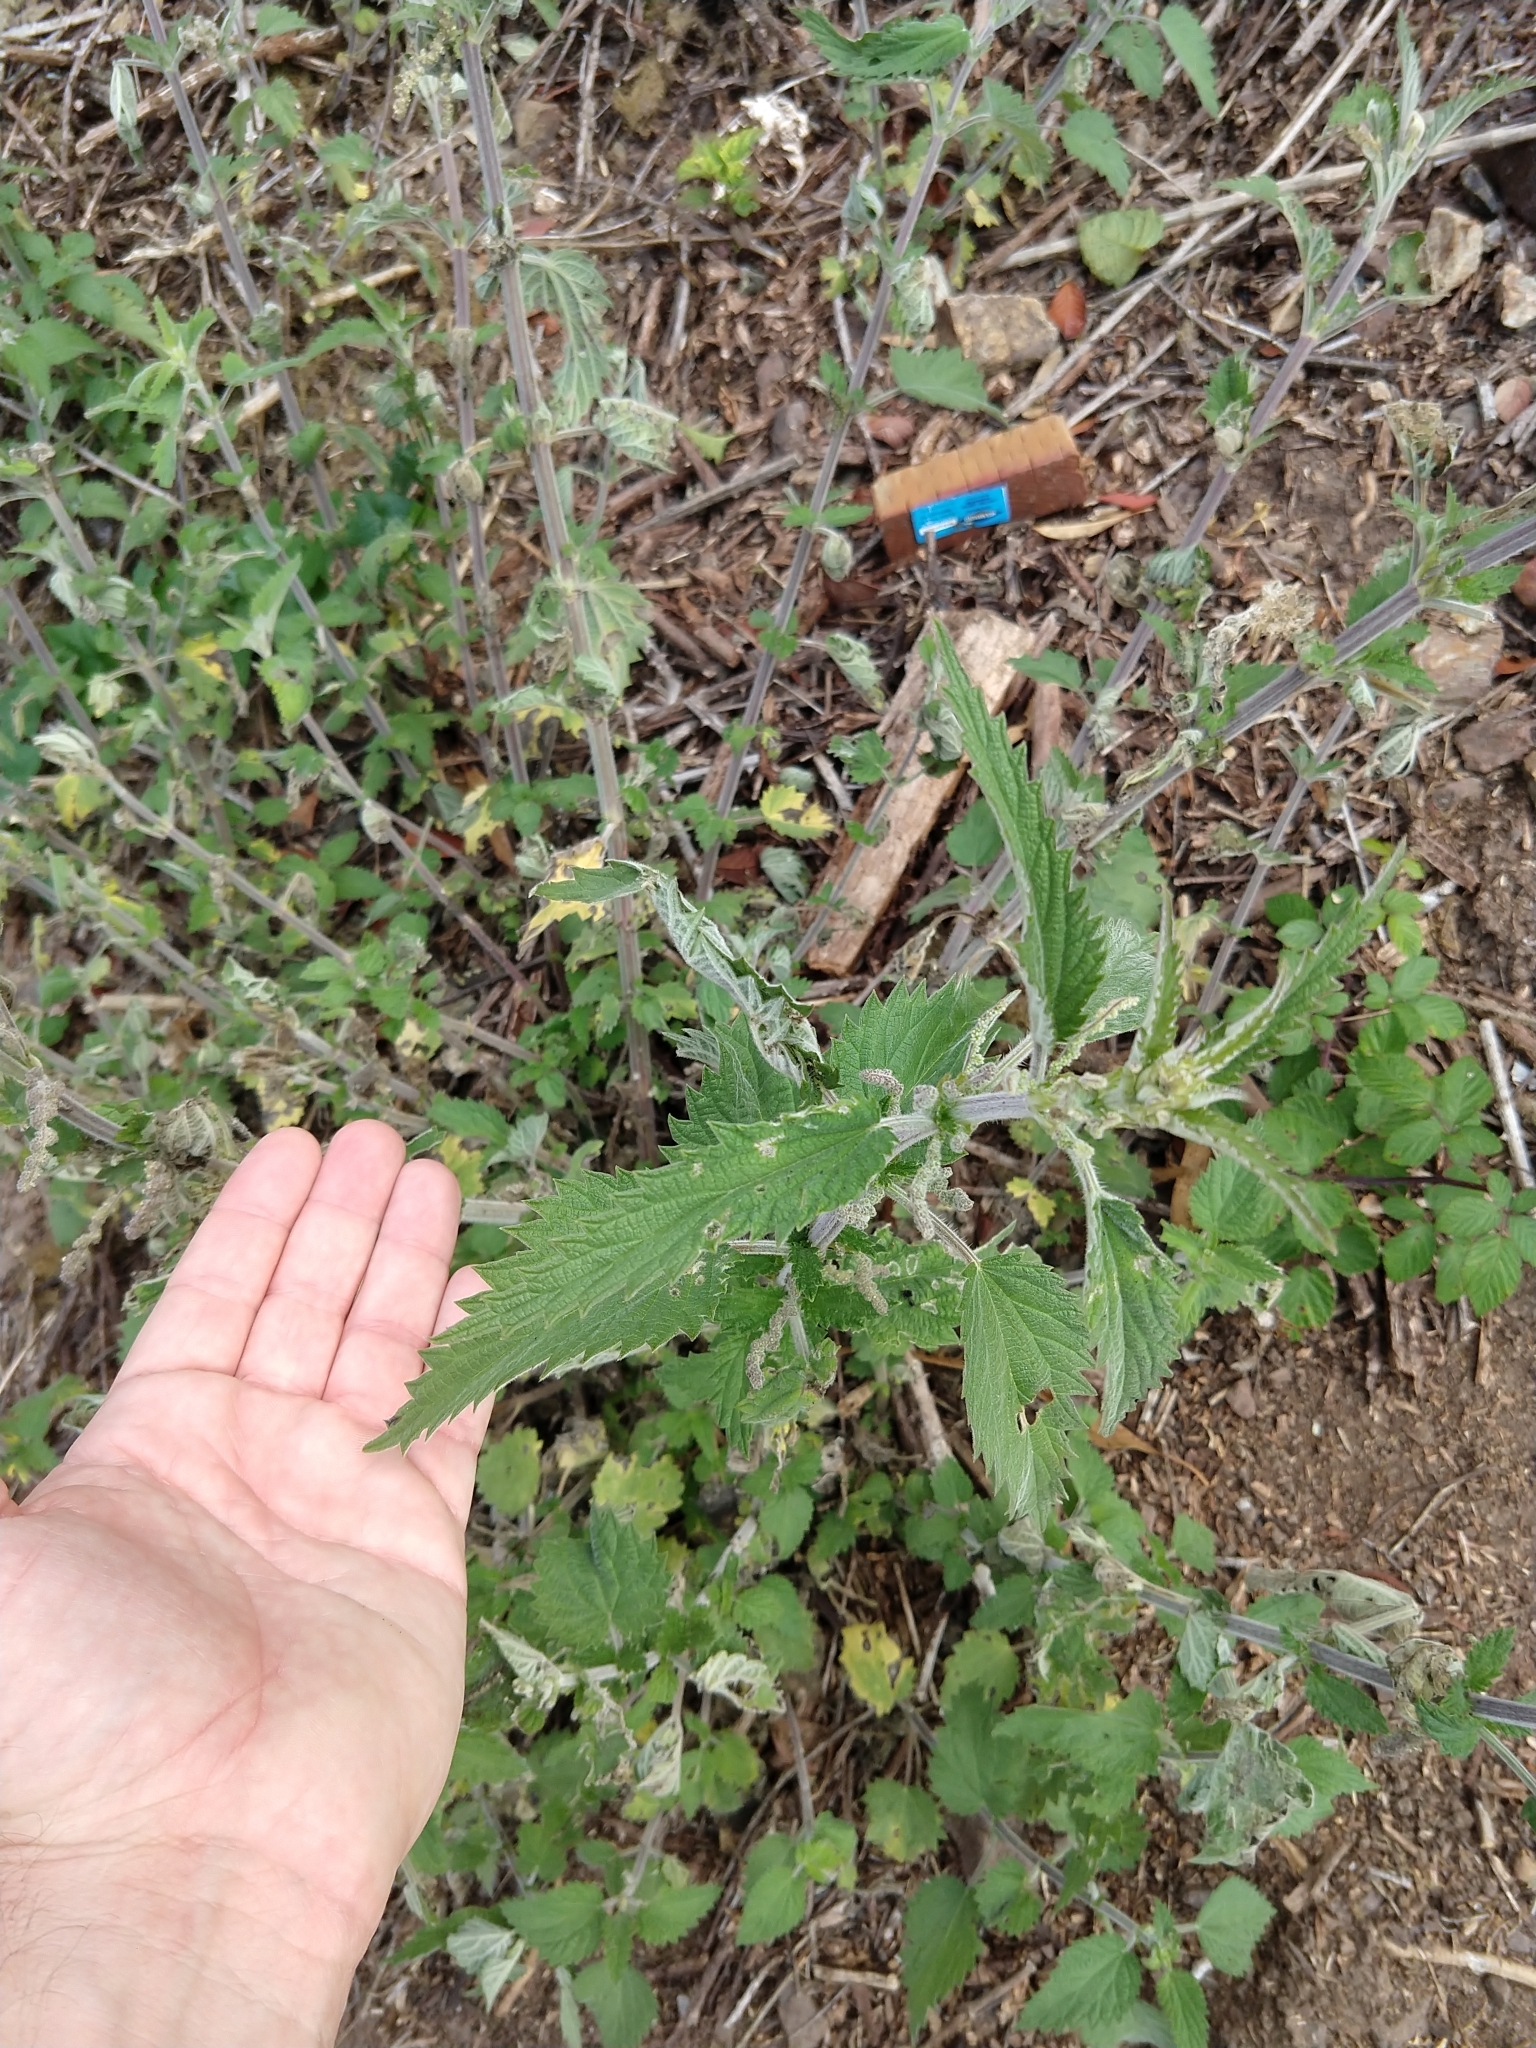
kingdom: Plantae
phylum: Tracheophyta
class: Magnoliopsida
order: Rosales
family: Urticaceae
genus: Urtica
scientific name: Urtica gracilis
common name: Slender stinging nettle
